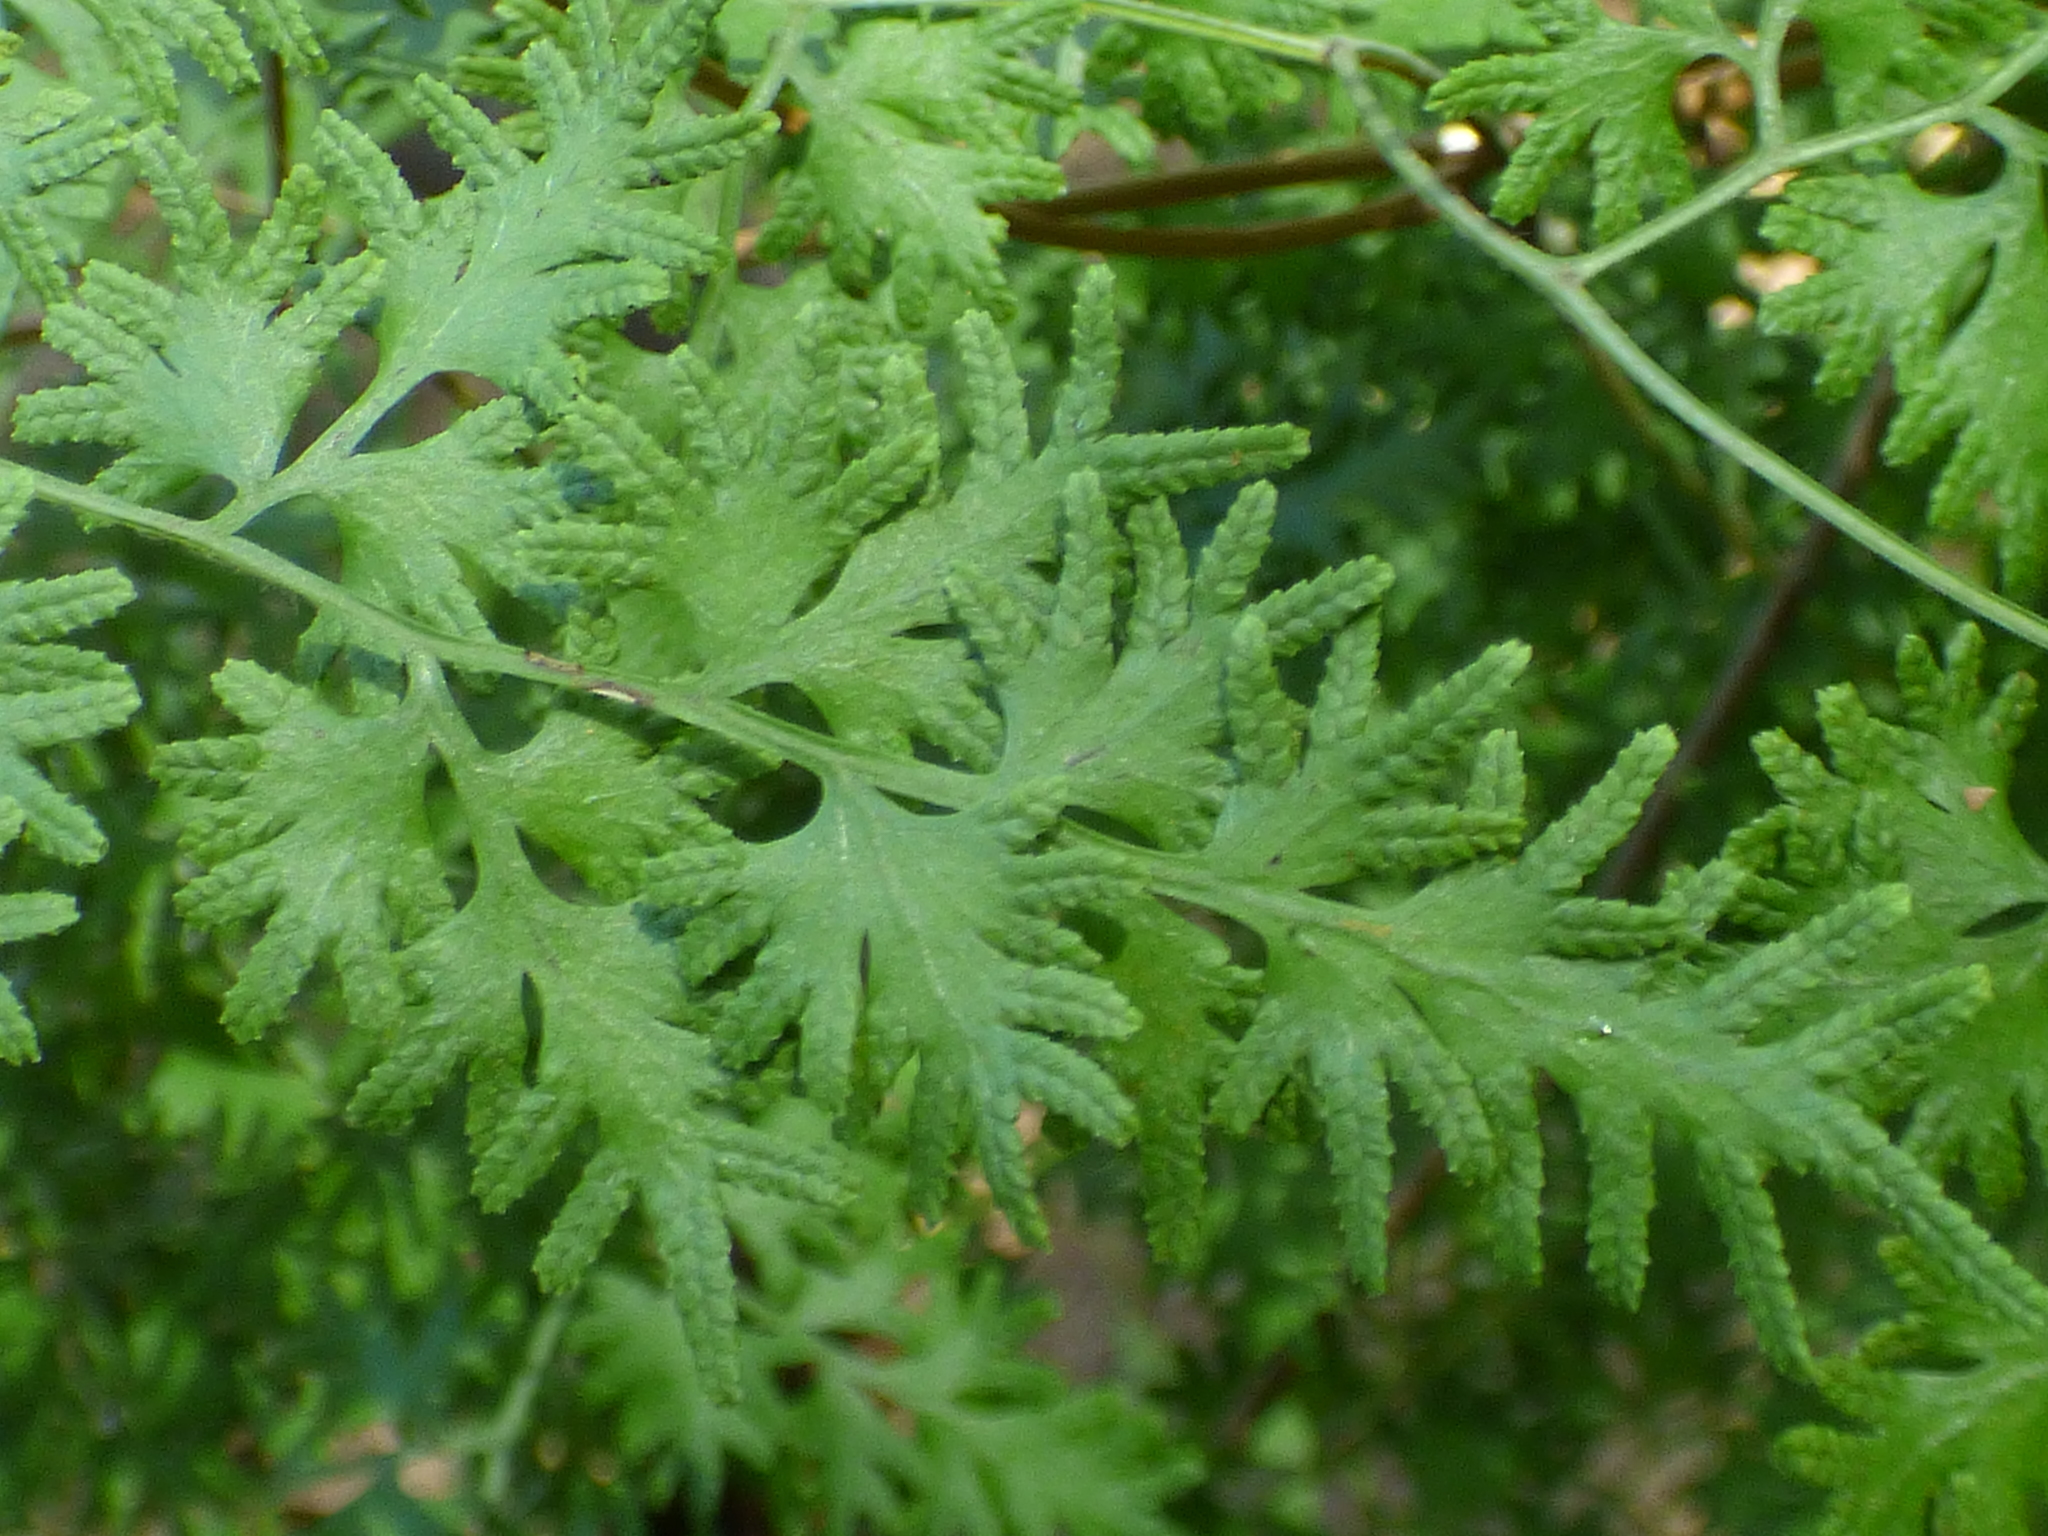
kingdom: Plantae
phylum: Tracheophyta
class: Polypodiopsida
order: Schizaeales
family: Lygodiaceae
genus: Lygodium
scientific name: Lygodium japonicum
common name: Japanese climbing fern
